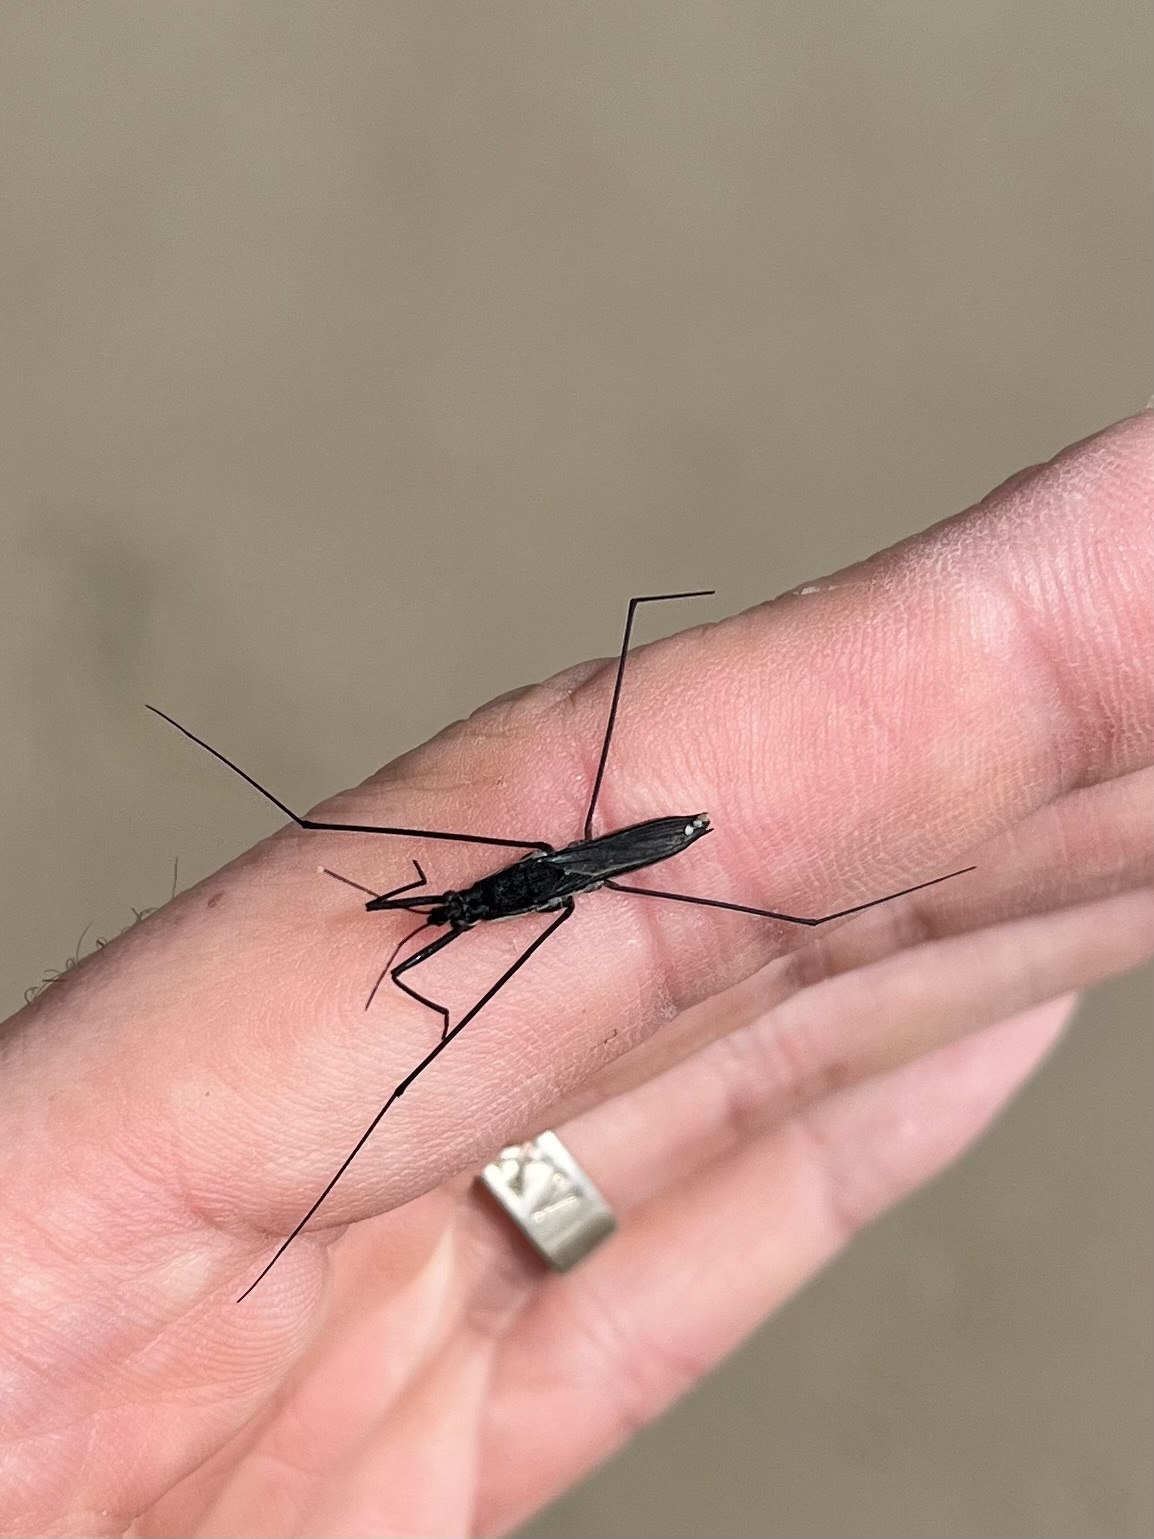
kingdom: Animalia
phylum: Arthropoda
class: Insecta
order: Hemiptera
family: Gerridae
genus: Aquarius
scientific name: Aquarius paludum
